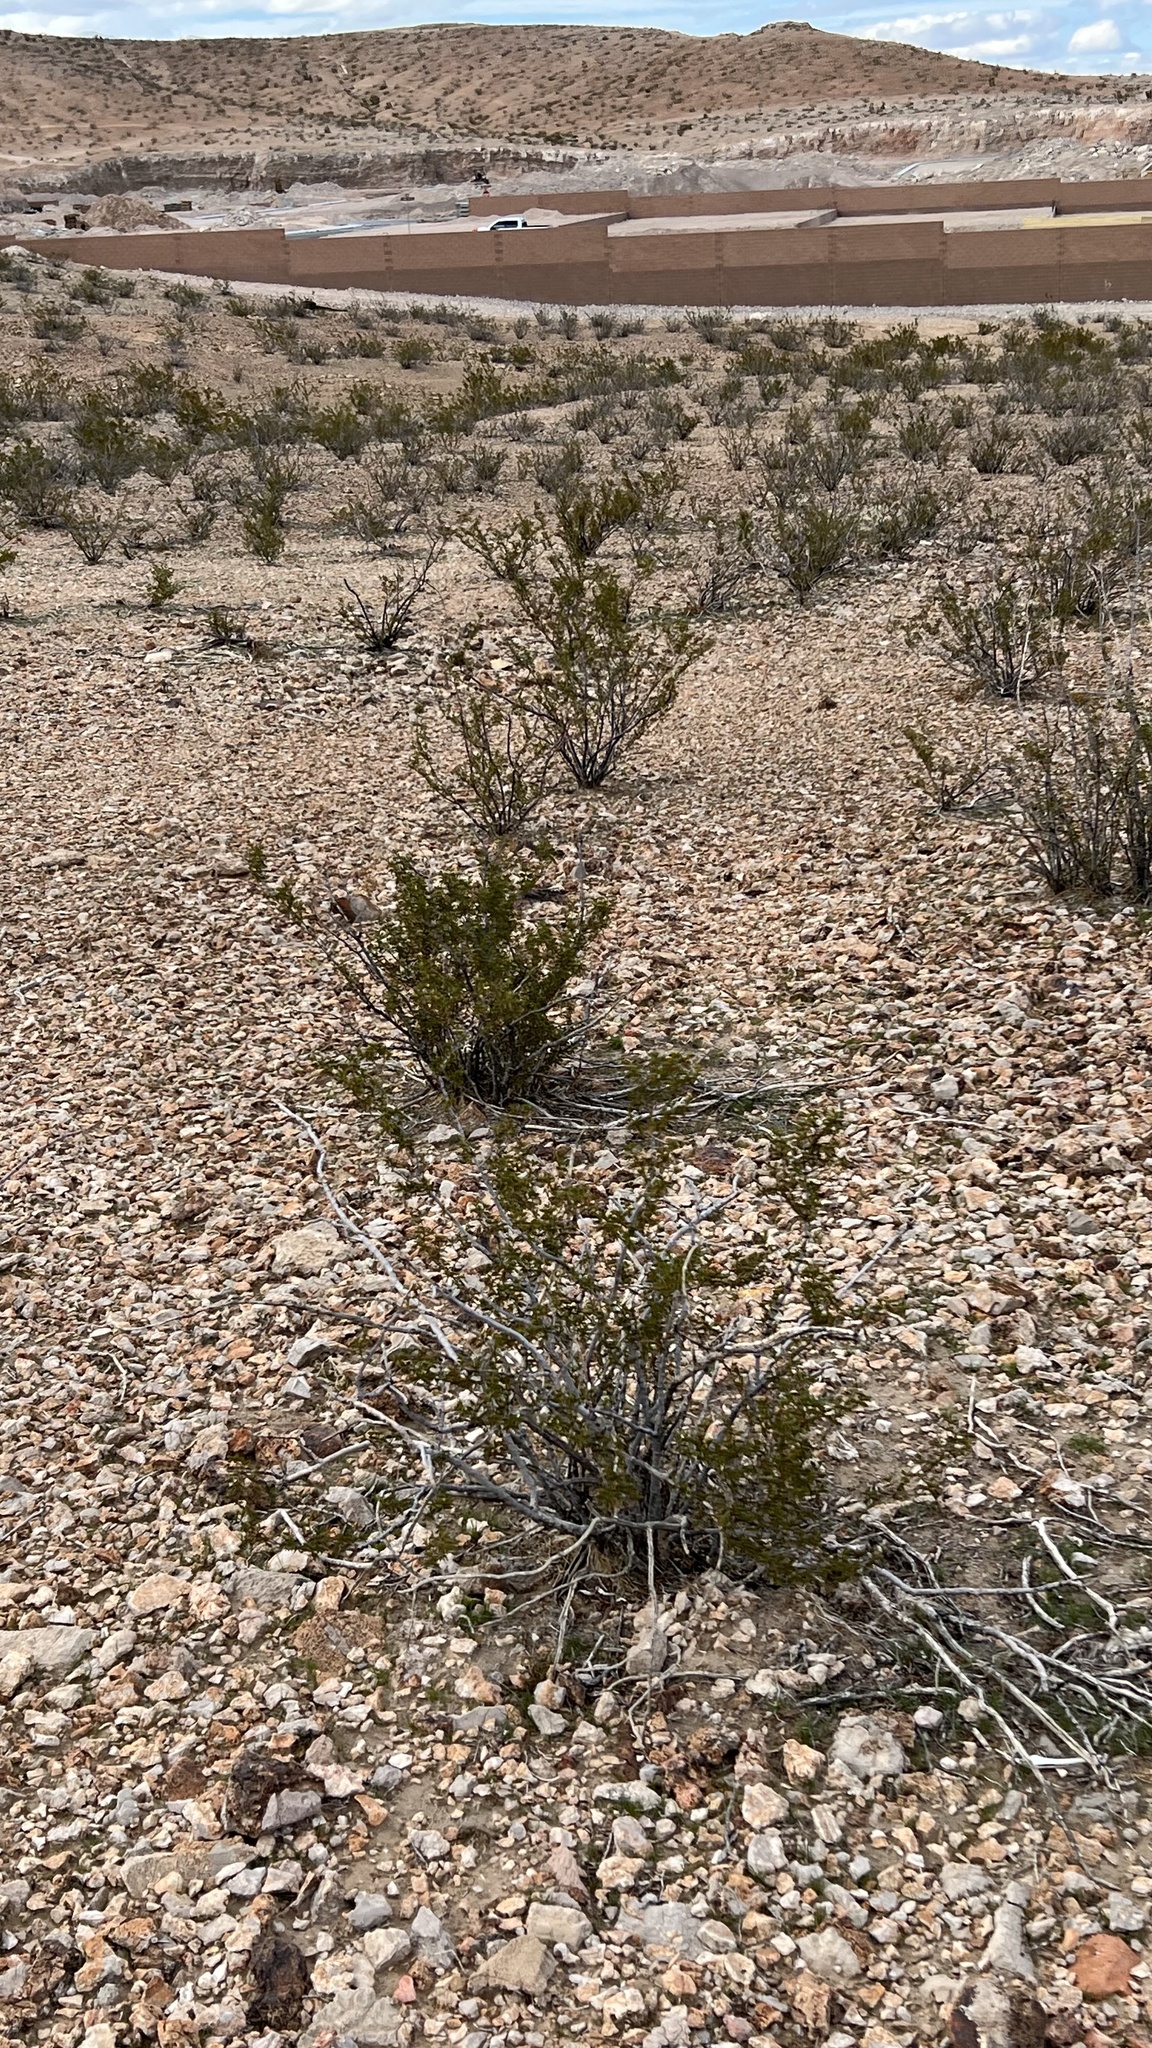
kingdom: Plantae
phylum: Tracheophyta
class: Magnoliopsida
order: Zygophyllales
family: Zygophyllaceae
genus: Larrea
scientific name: Larrea tridentata
